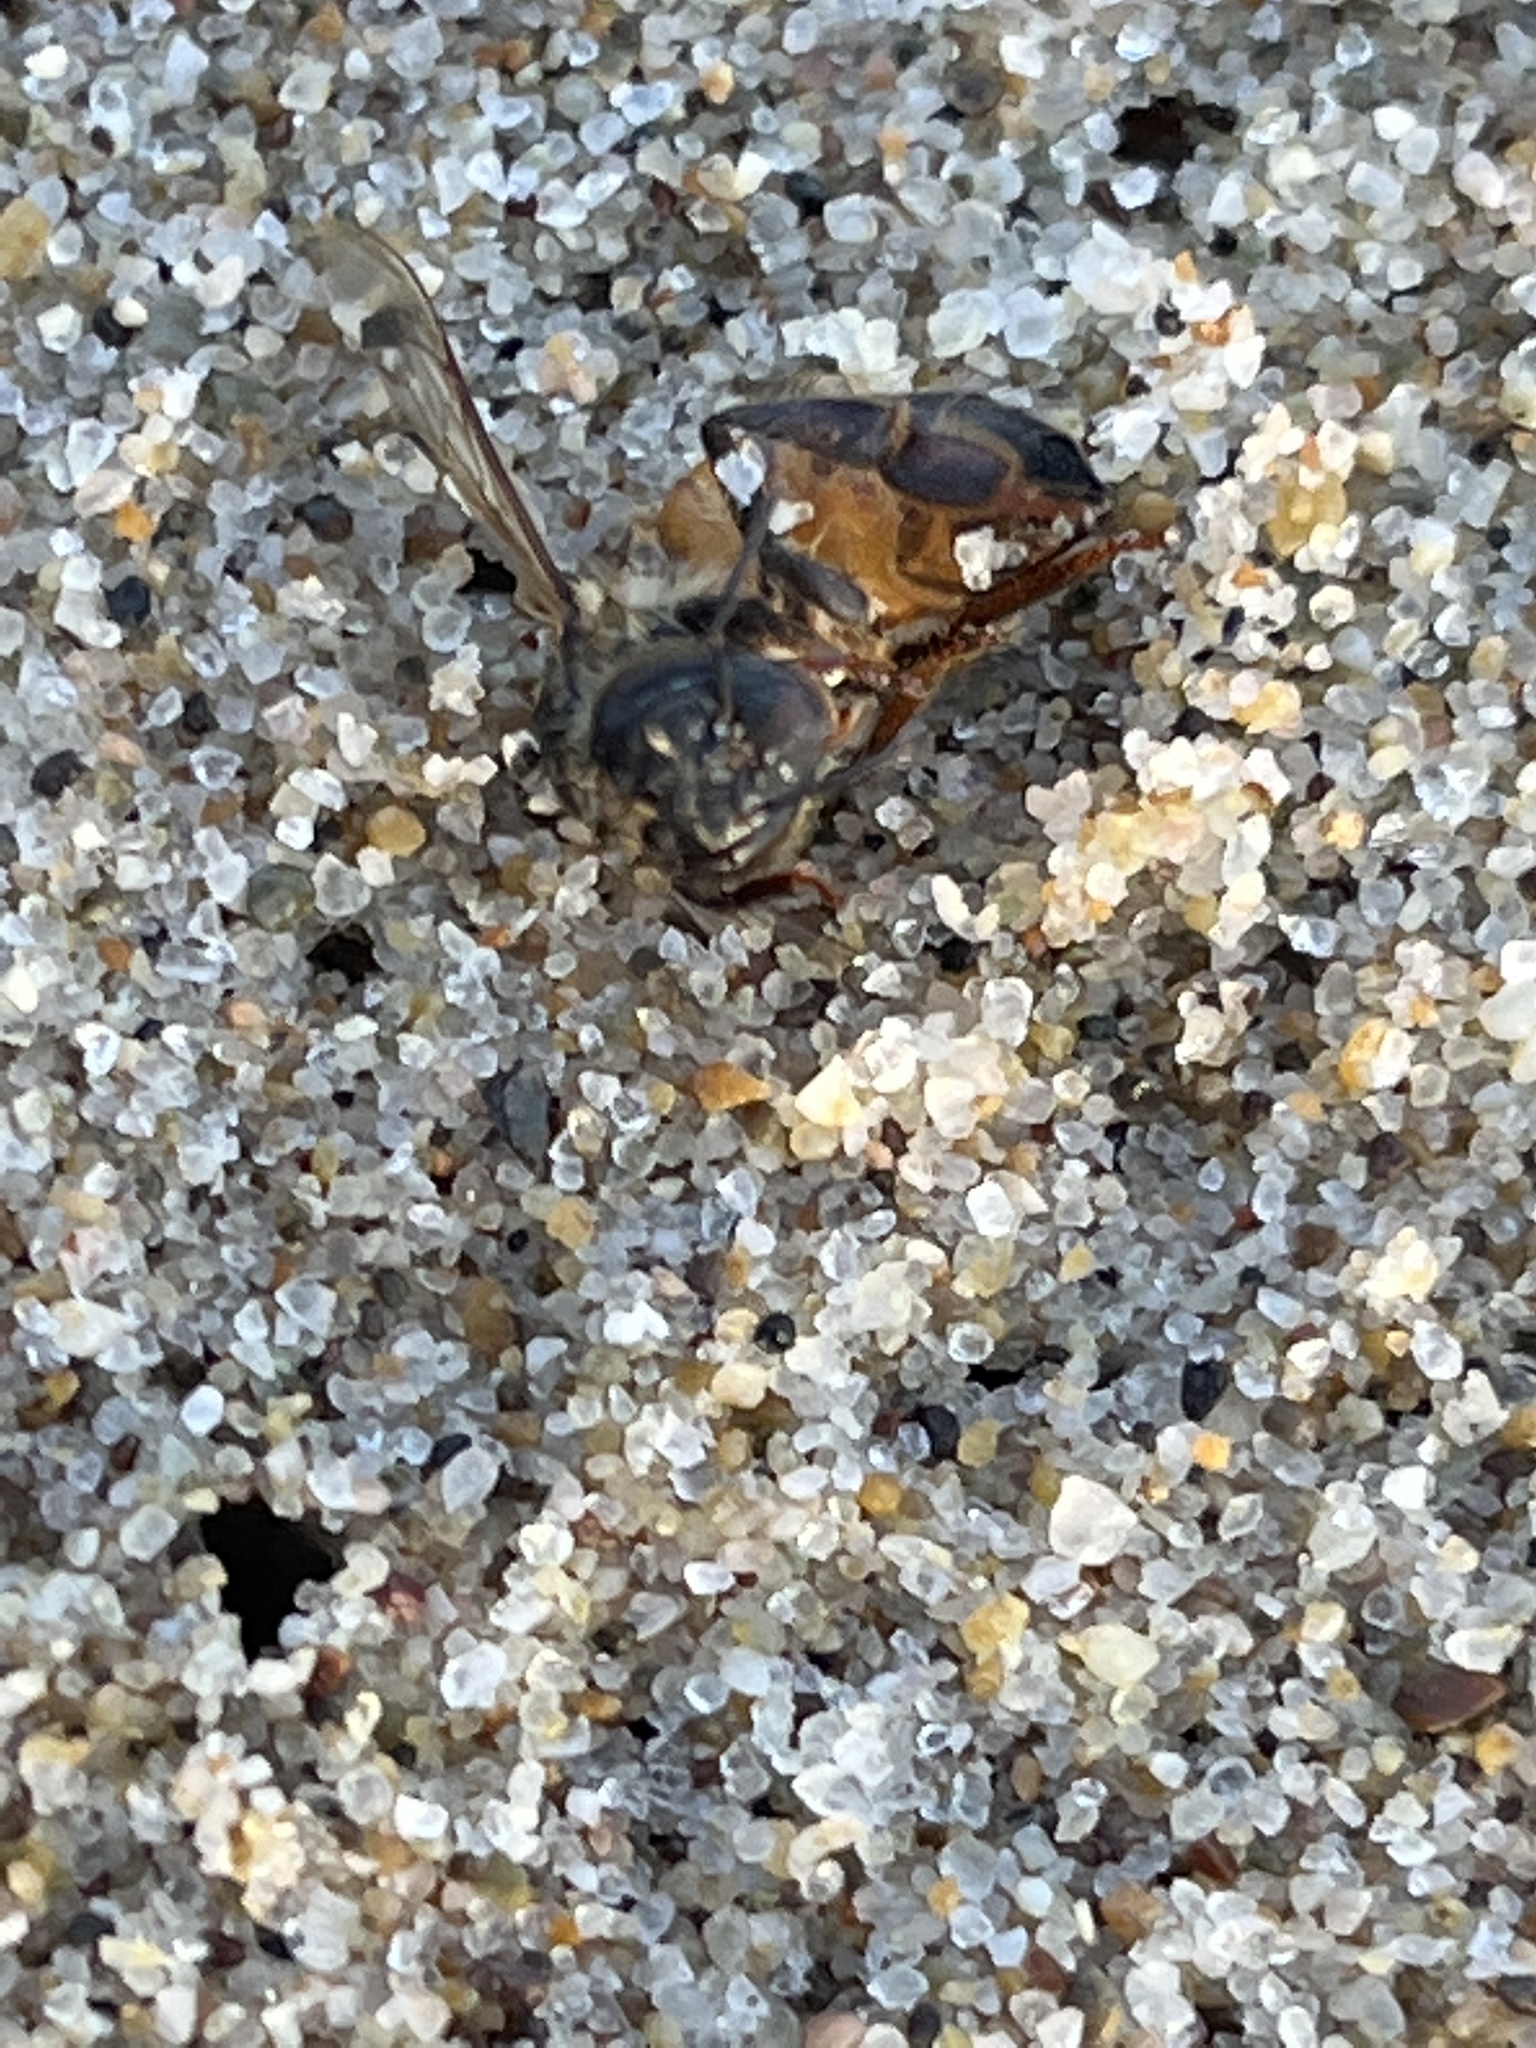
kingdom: Animalia
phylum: Arthropoda
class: Insecta
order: Hymenoptera
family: Apidae
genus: Apis
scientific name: Apis mellifera
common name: Honey bee
